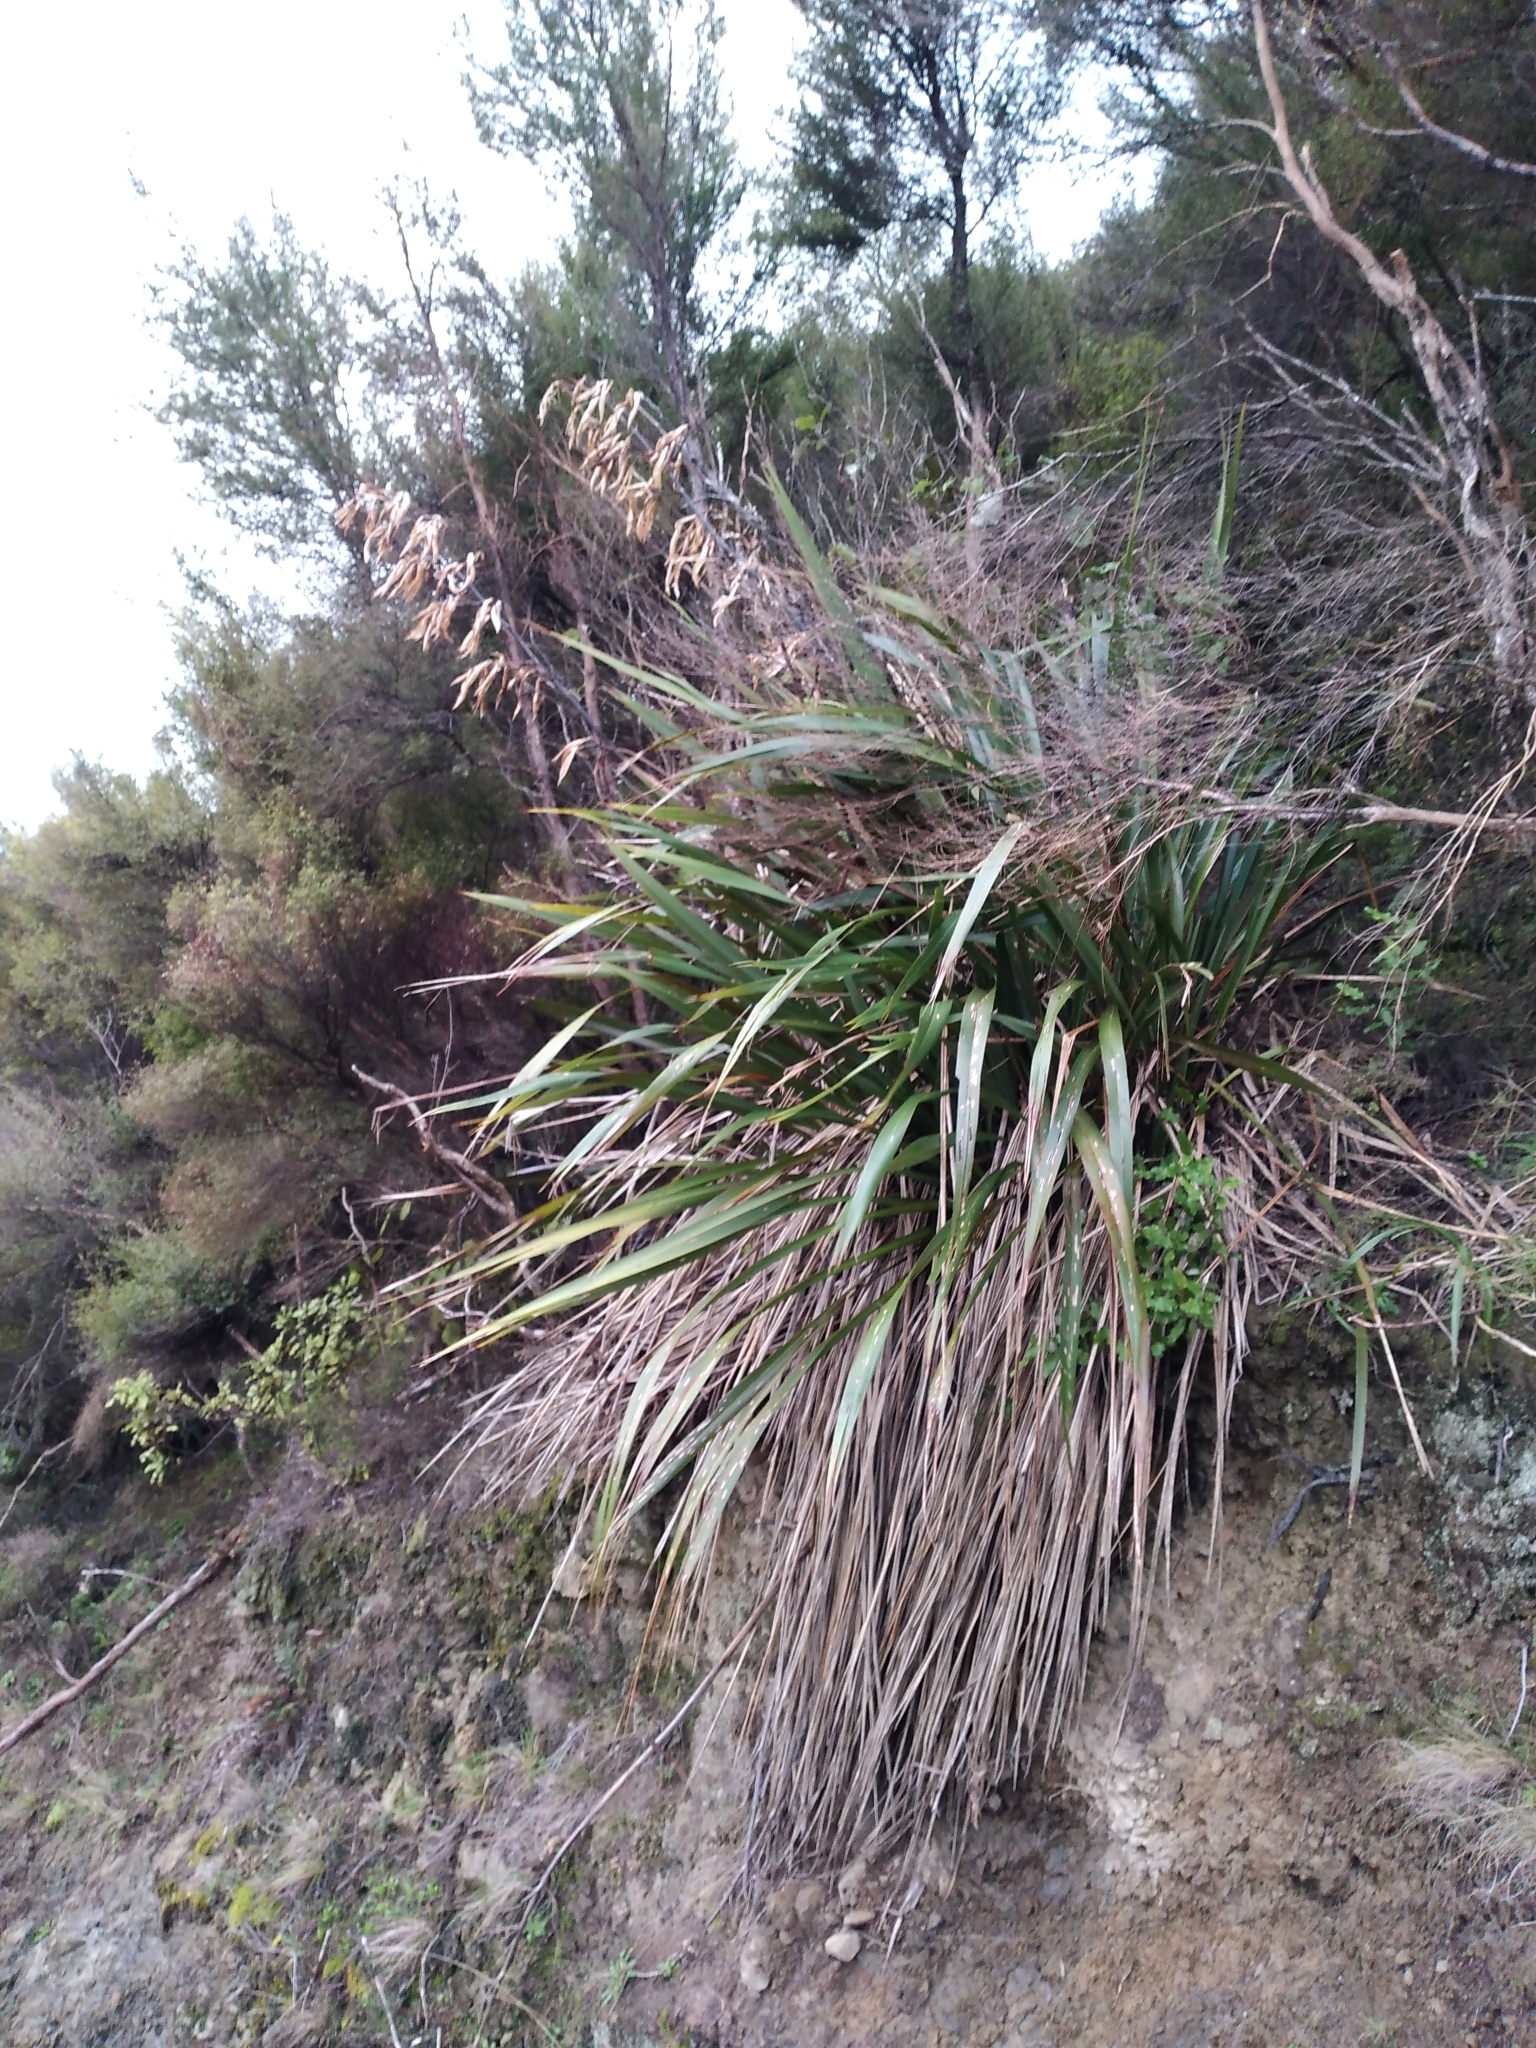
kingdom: Plantae
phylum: Tracheophyta
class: Liliopsida
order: Asparagales
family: Asphodelaceae
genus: Phormium
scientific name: Phormium colensoi
